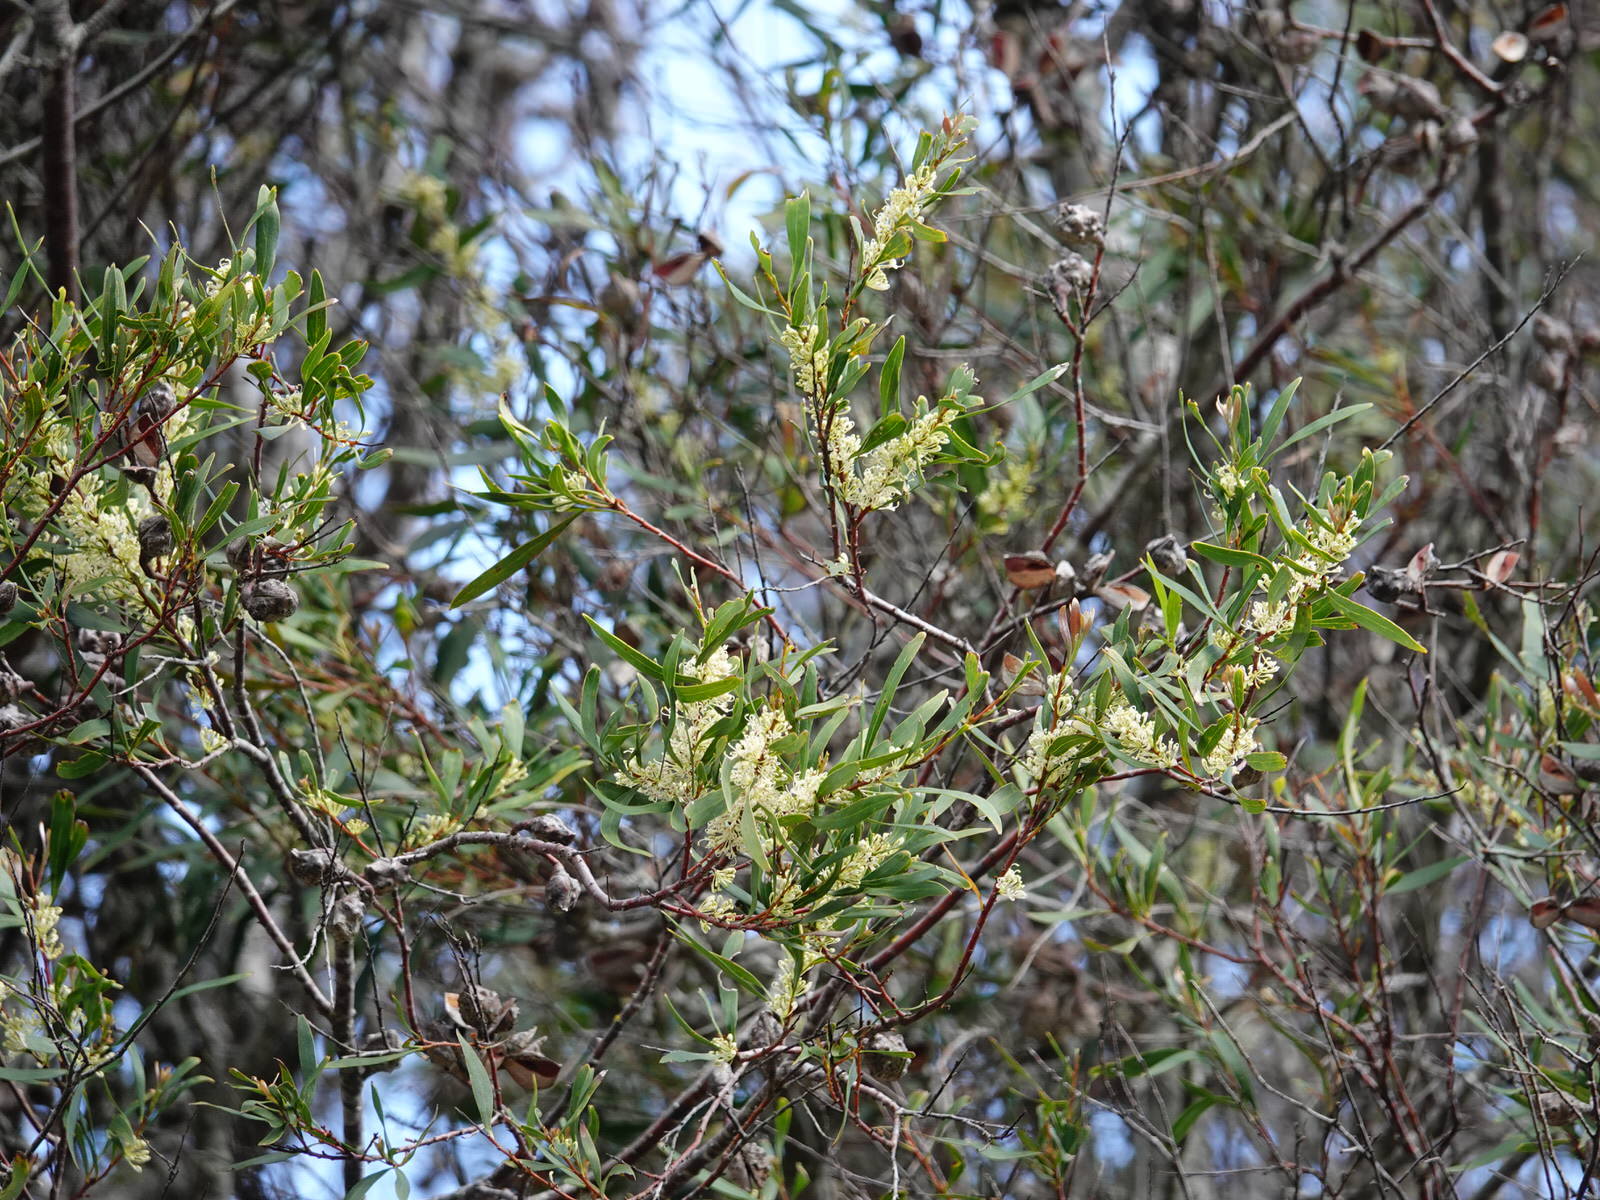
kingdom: Plantae
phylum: Tracheophyta
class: Magnoliopsida
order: Proteales
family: Proteaceae
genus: Hakea
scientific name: Hakea salicifolia
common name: Willow hakea
